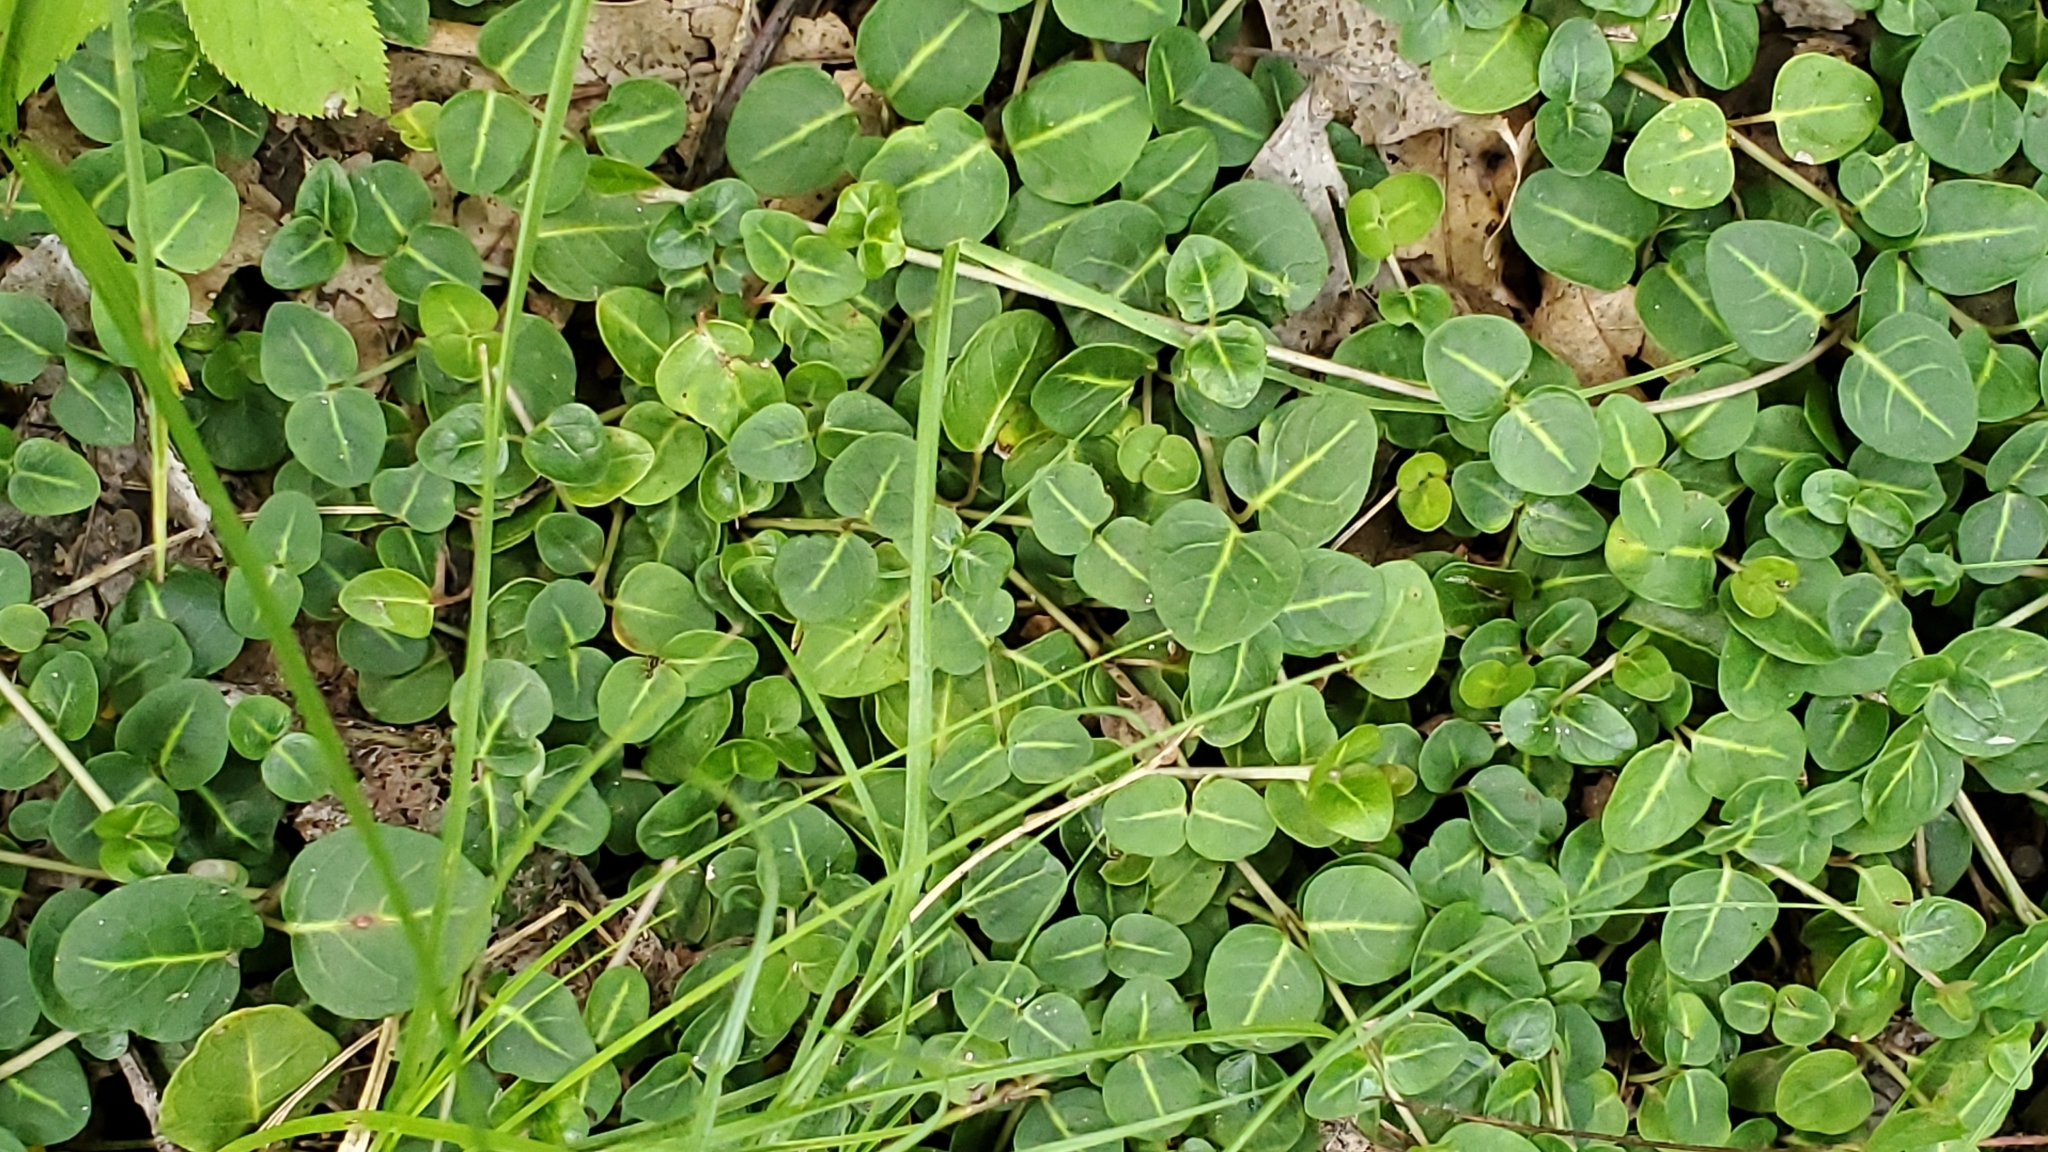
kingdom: Plantae
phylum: Tracheophyta
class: Magnoliopsida
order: Gentianales
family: Rubiaceae
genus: Mitchella
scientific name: Mitchella repens
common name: Partridge-berry
